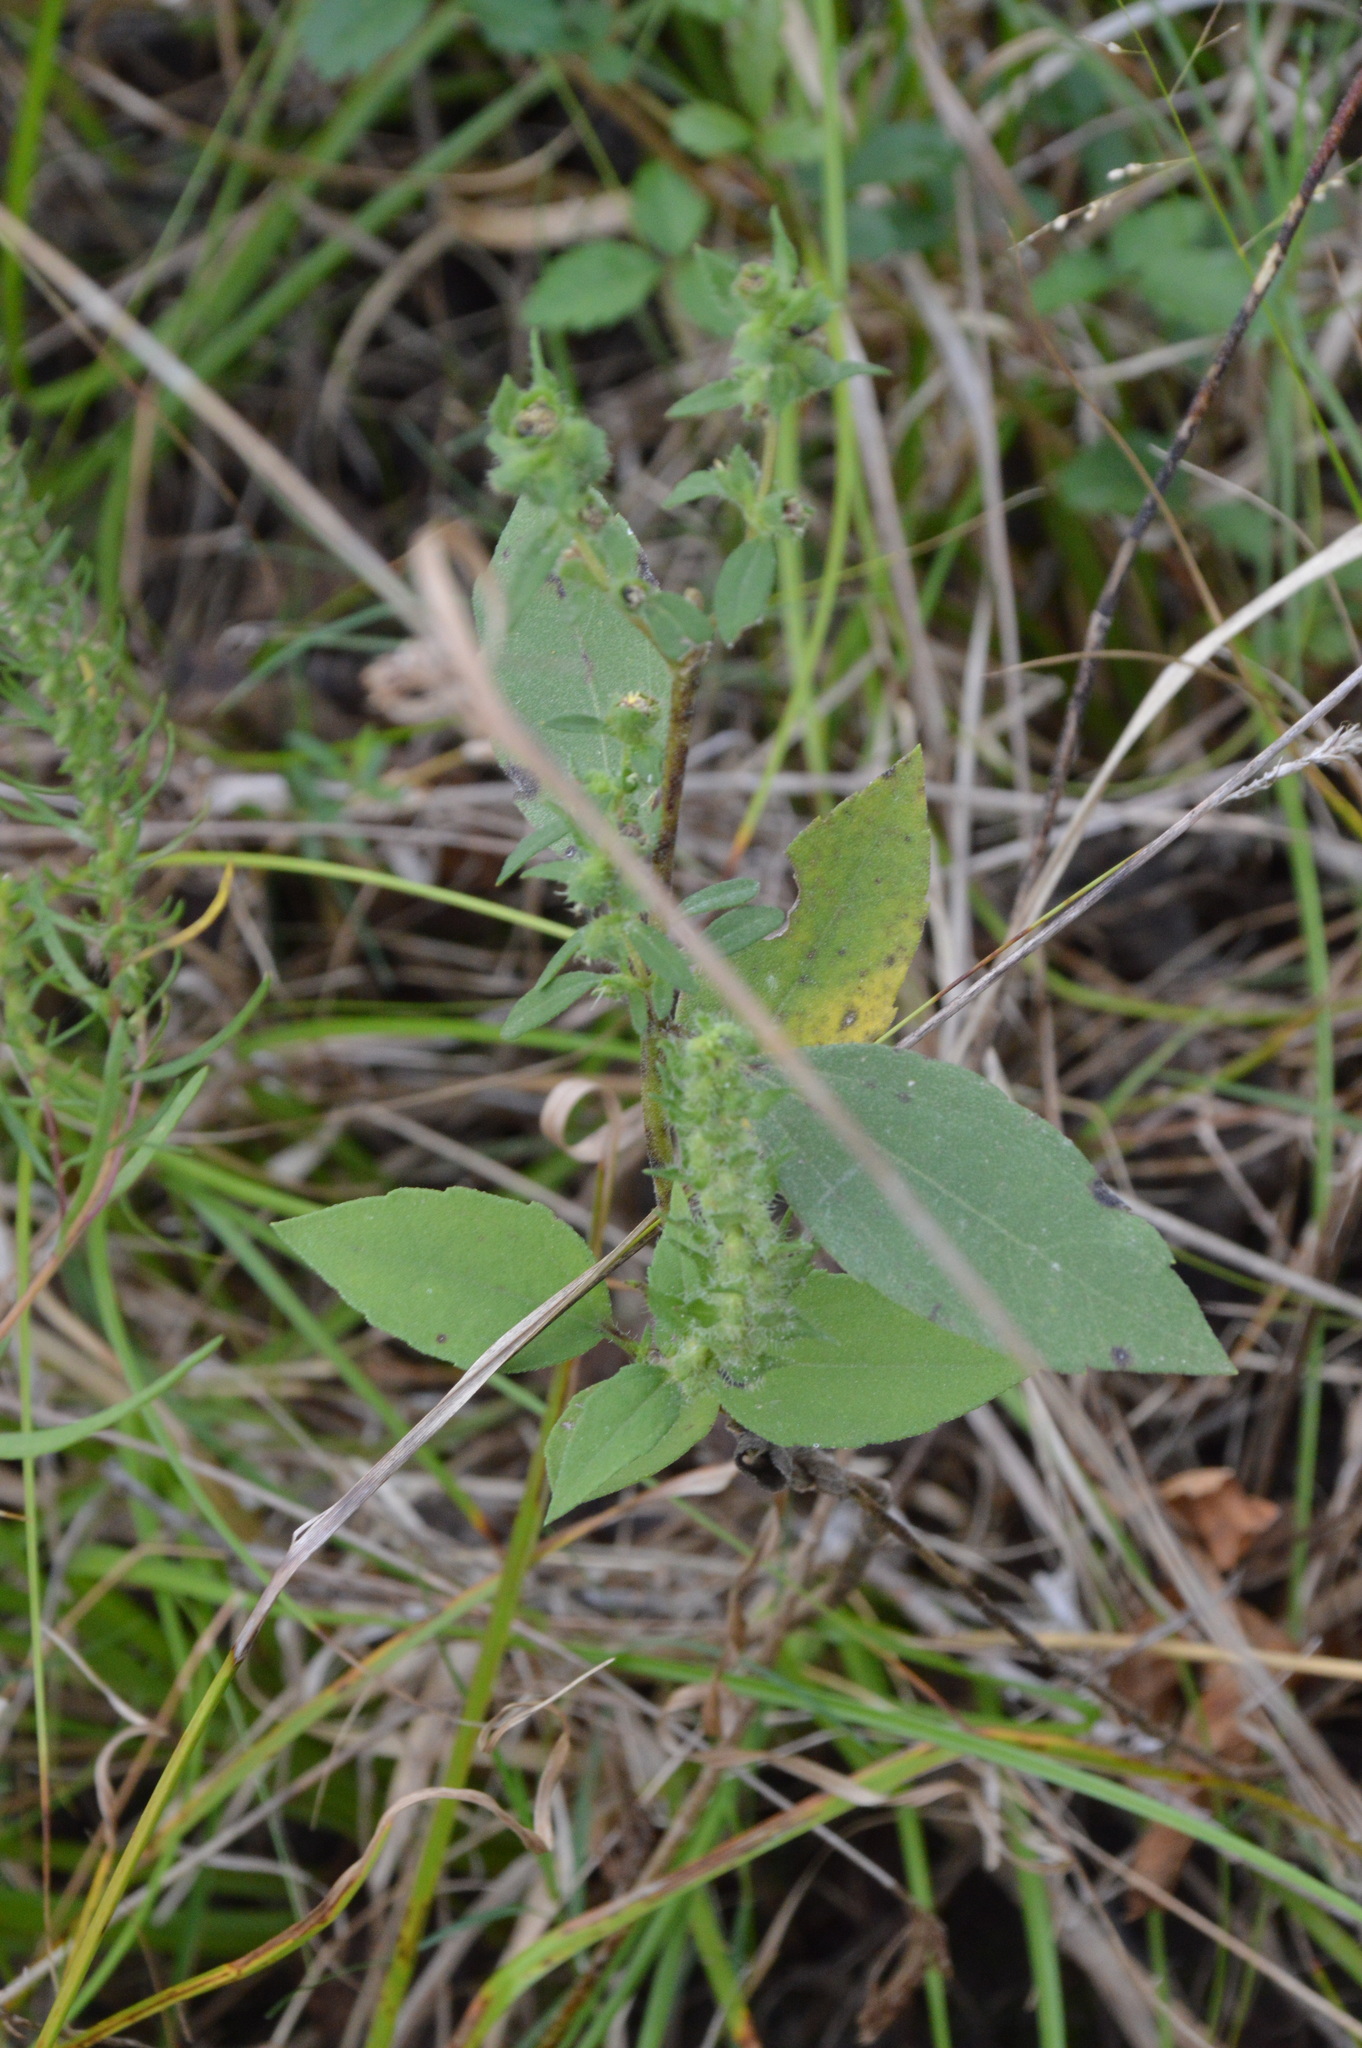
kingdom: Plantae
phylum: Tracheophyta
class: Magnoliopsida
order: Asterales
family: Asteraceae
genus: Iva
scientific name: Iva annua
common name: Marsh-elder
